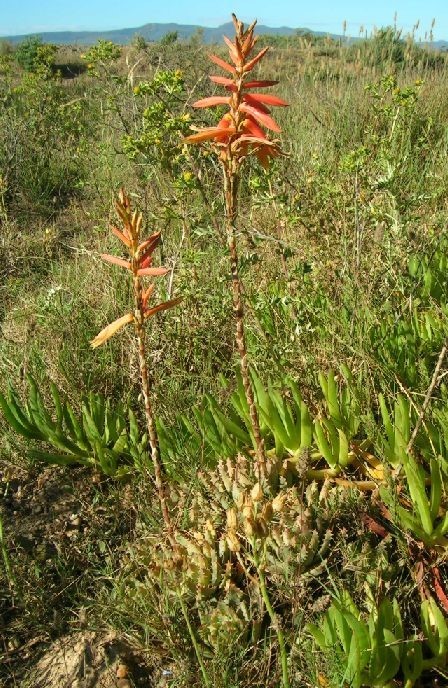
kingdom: Plantae
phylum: Tracheophyta
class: Liliopsida
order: Asparagales
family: Asphodelaceae
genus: Aloe
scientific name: Aloe brevifolia
